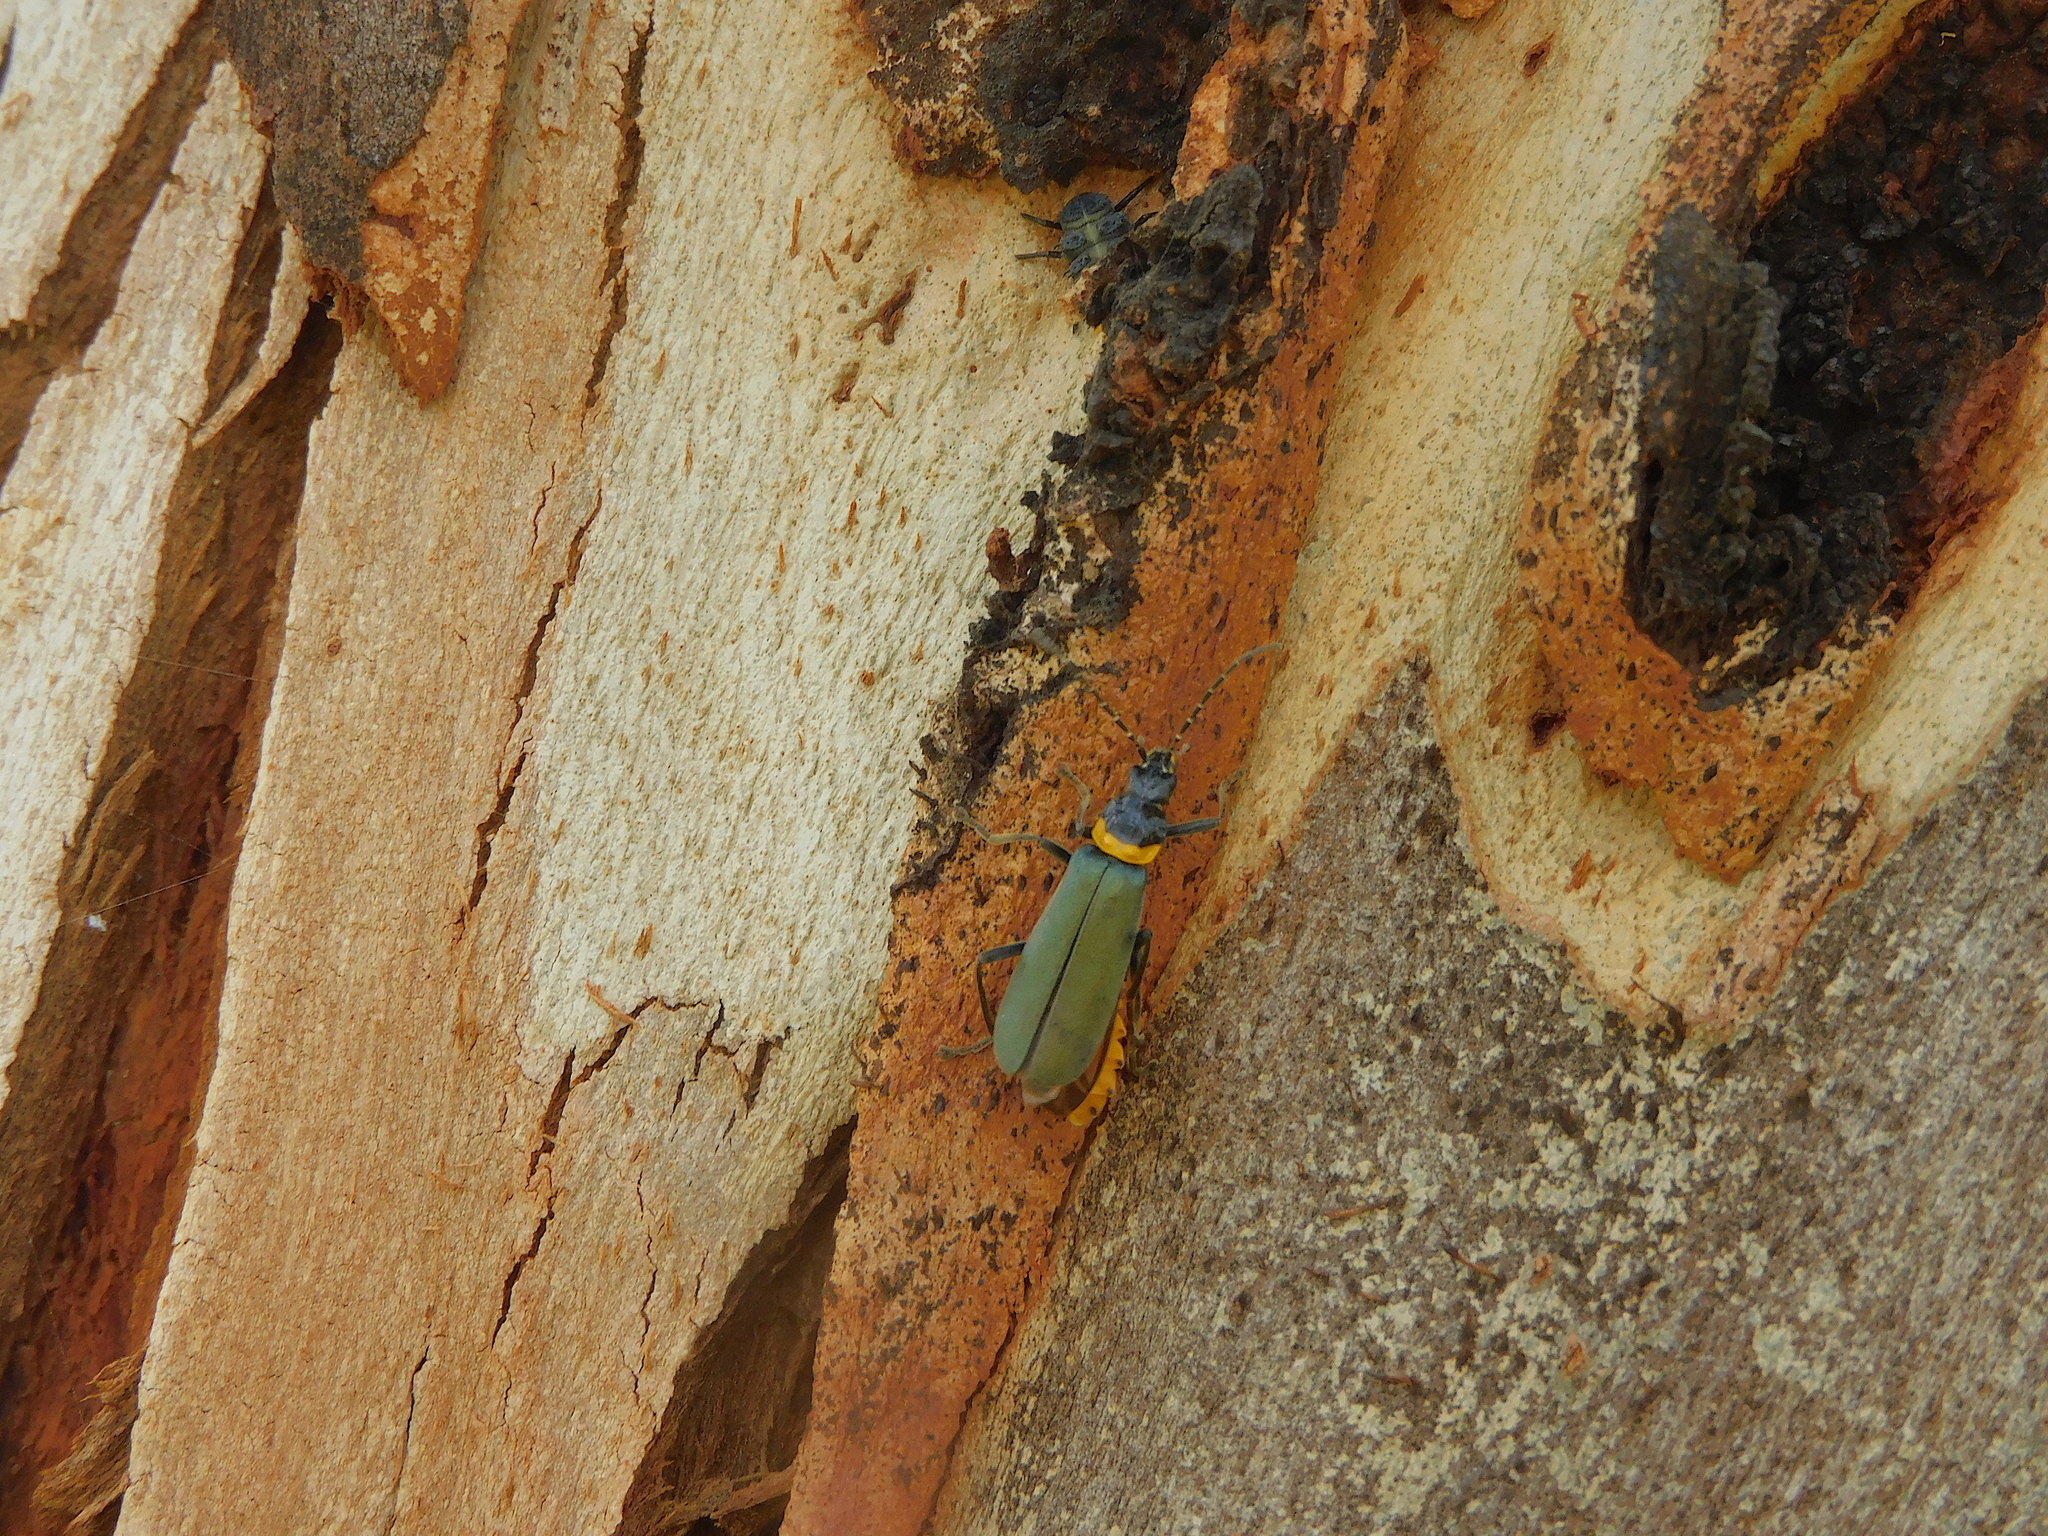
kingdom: Animalia
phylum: Arthropoda
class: Insecta
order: Coleoptera
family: Cantharidae
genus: Chauliognathus
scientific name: Chauliognathus
